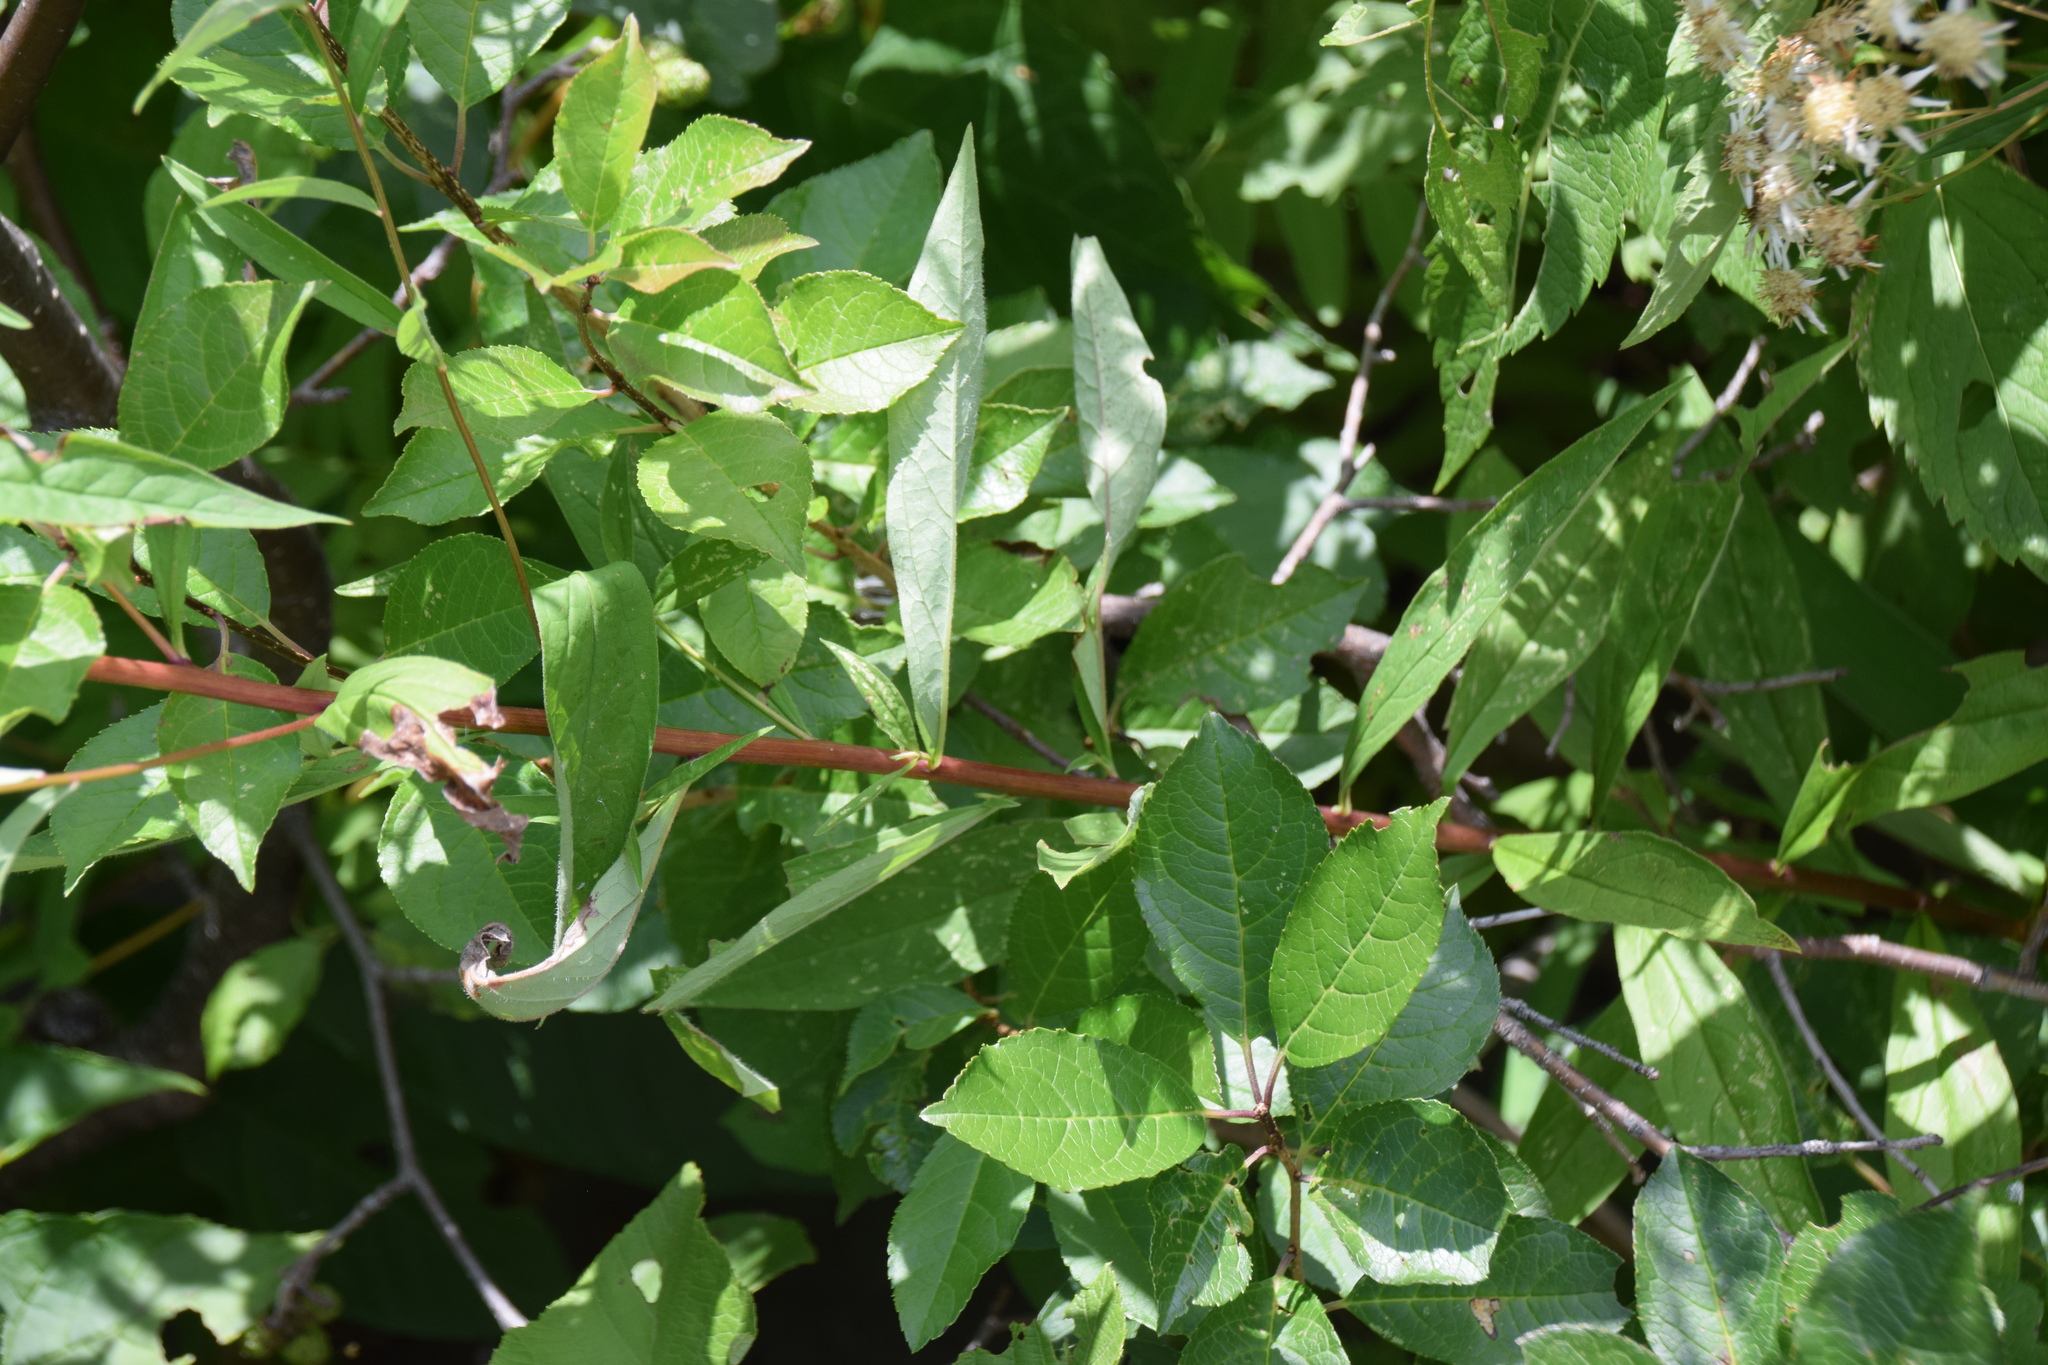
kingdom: Plantae
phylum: Tracheophyta
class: Magnoliopsida
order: Asterales
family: Asteraceae
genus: Doellingeria
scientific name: Doellingeria umbellata
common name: Flat-top white aster
